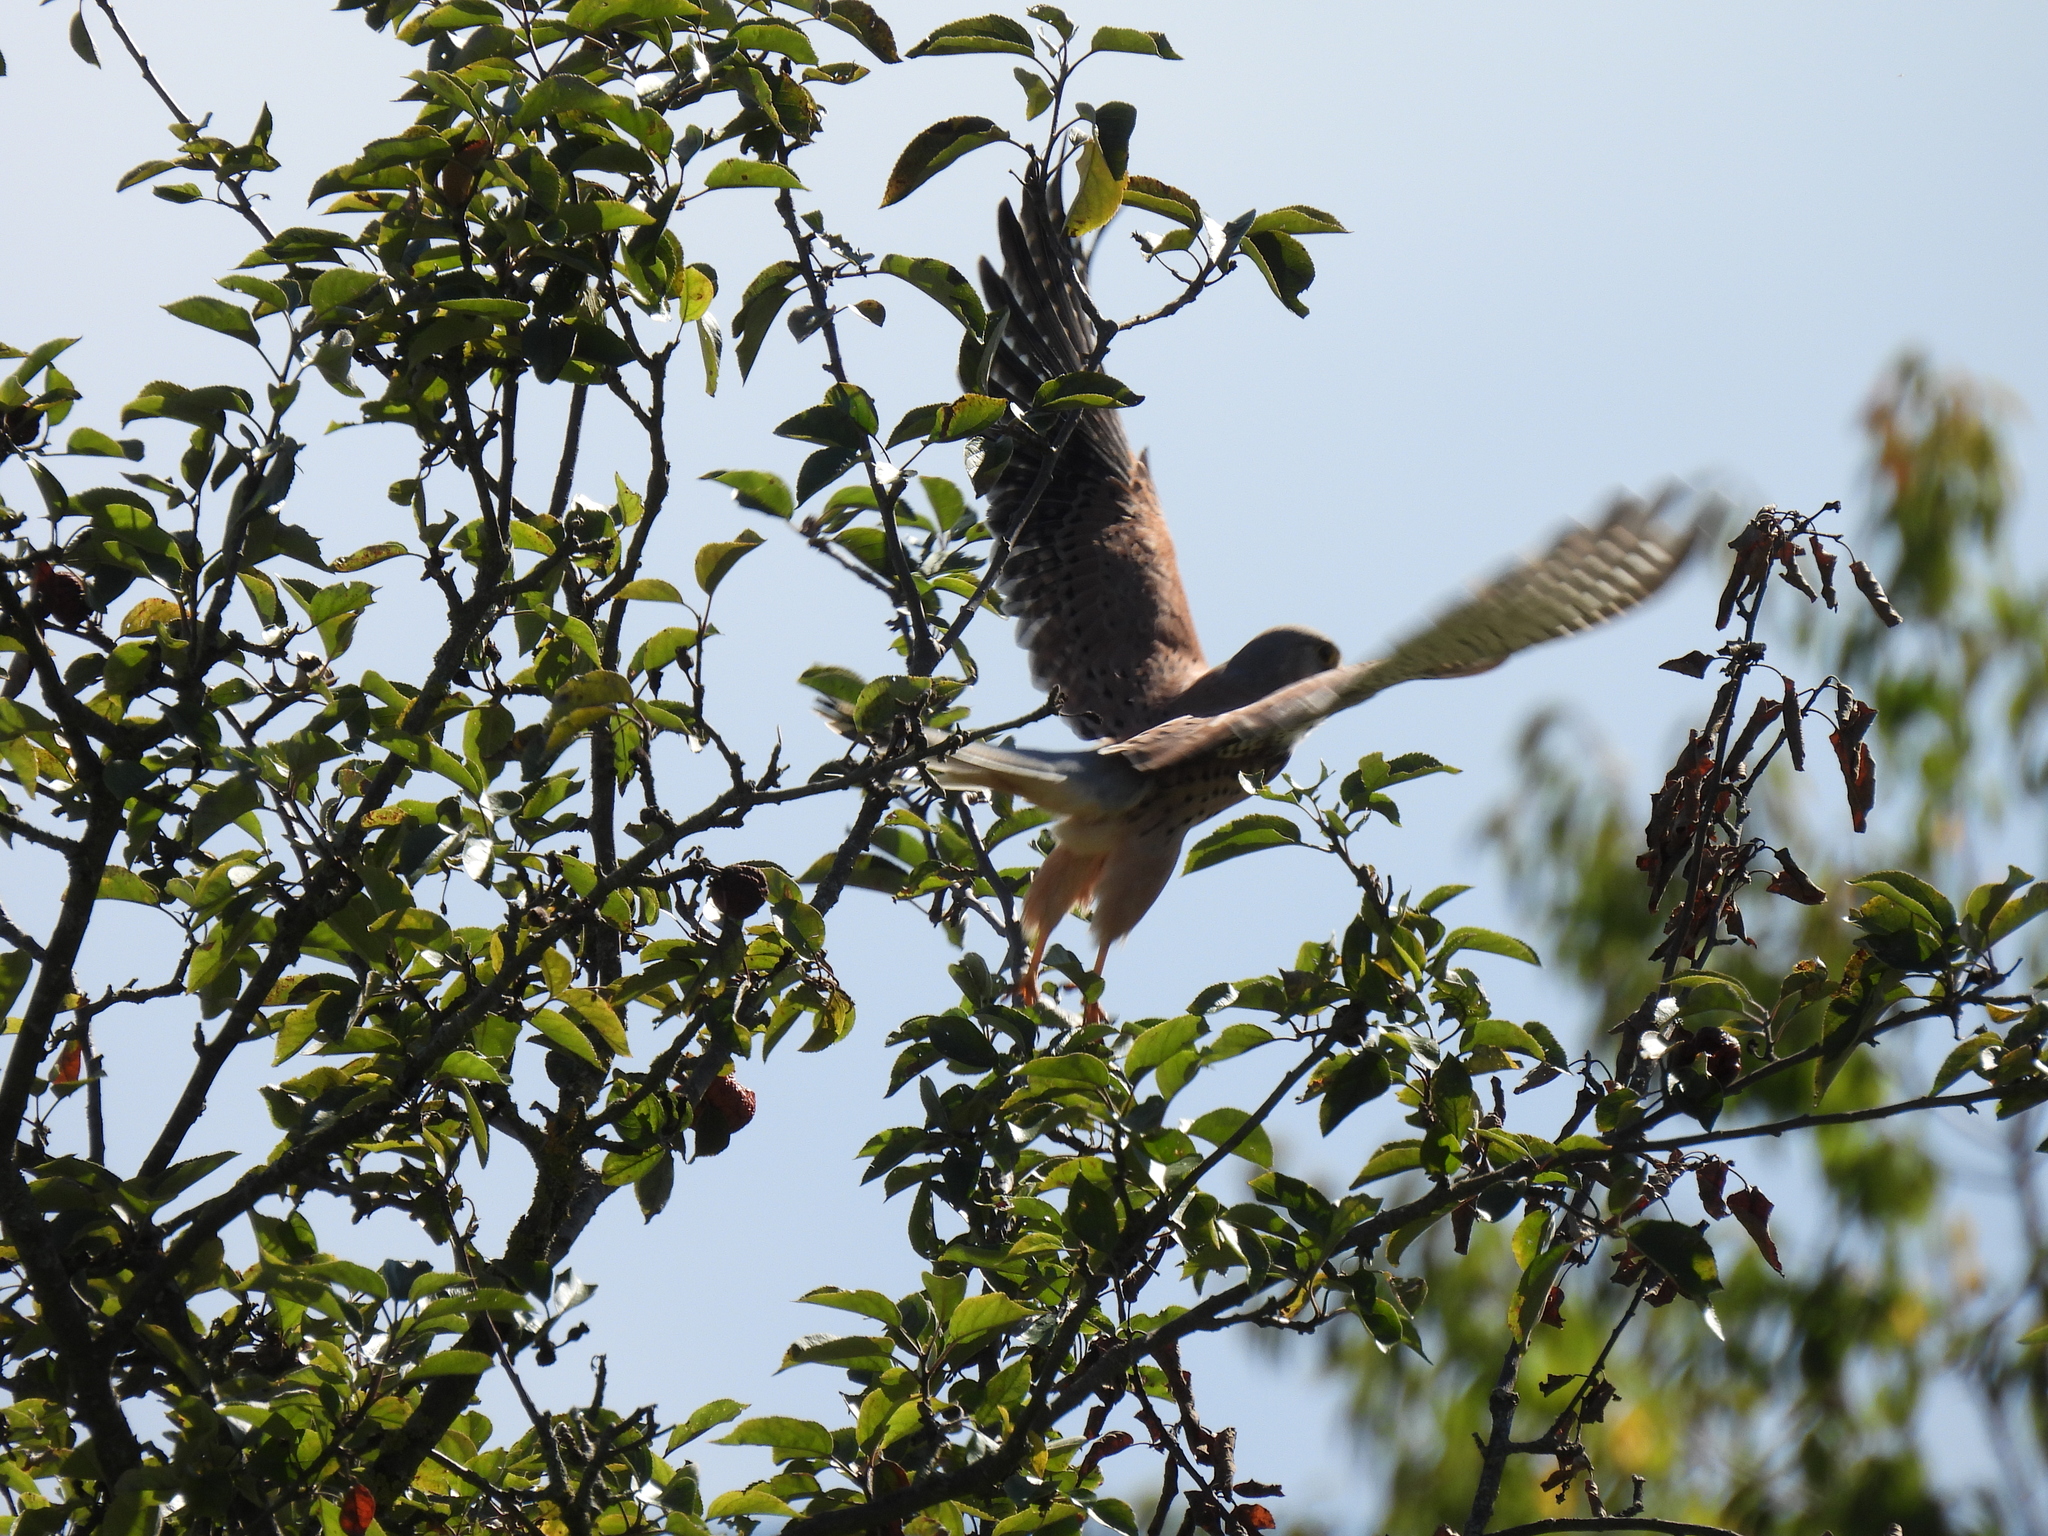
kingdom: Animalia
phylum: Chordata
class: Aves
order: Falconiformes
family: Falconidae
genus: Falco
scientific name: Falco tinnunculus
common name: Common kestrel
